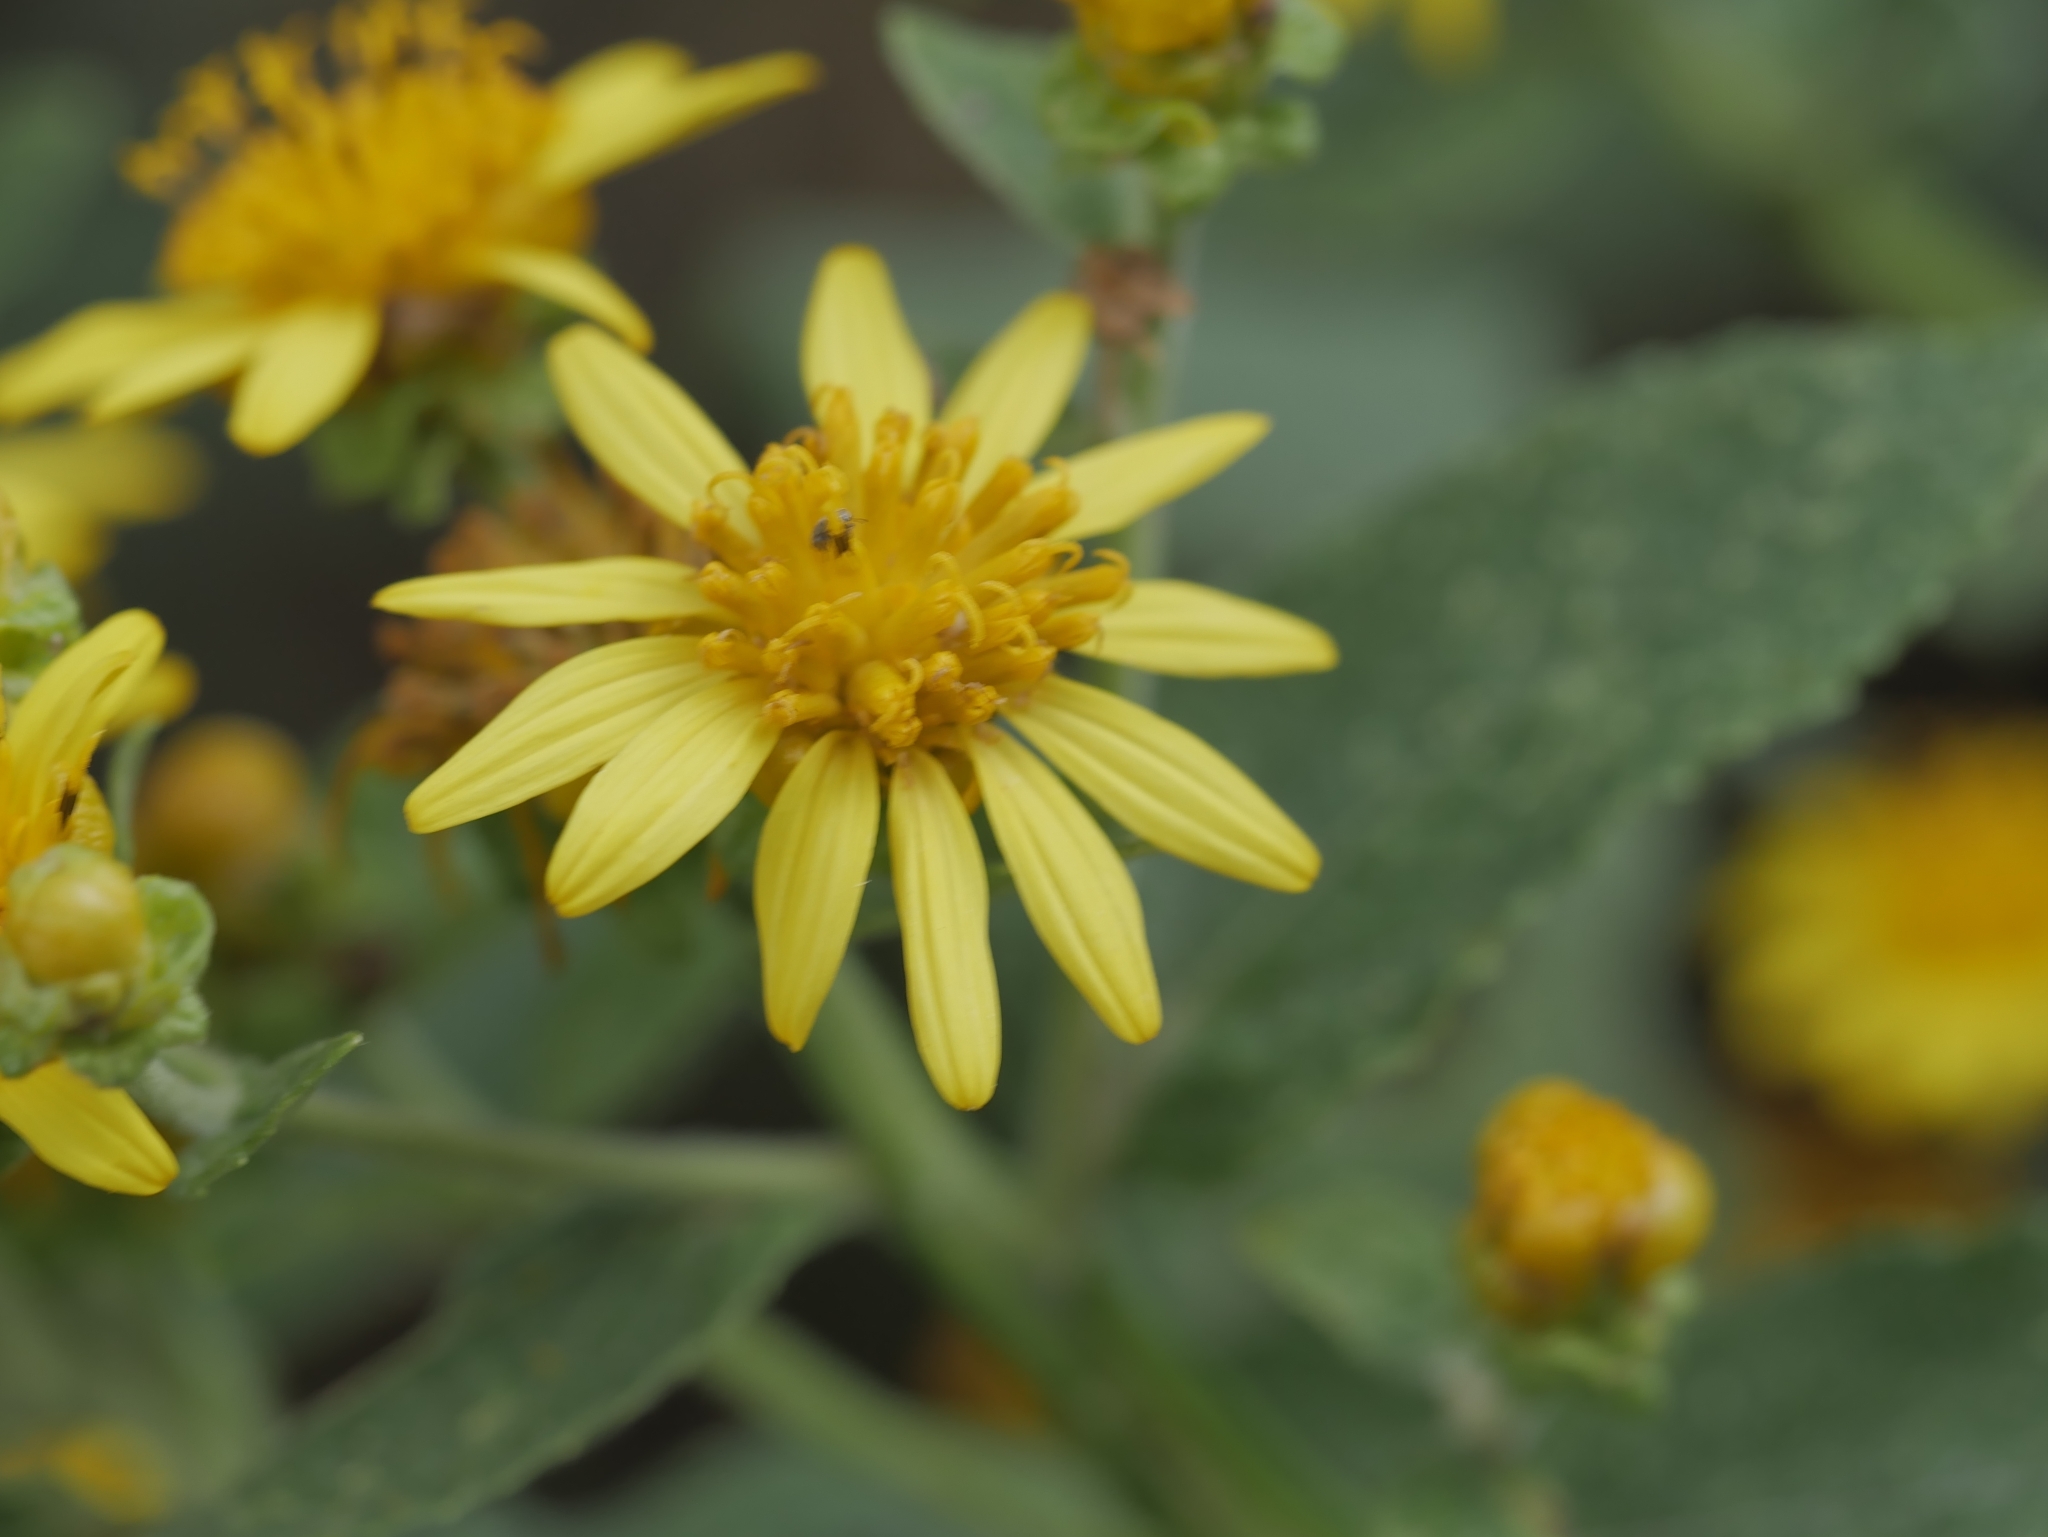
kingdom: Plantae
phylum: Tracheophyta
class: Magnoliopsida
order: Asterales
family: Asteraceae
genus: Verbesina
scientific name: Verbesina sphaerocephala
